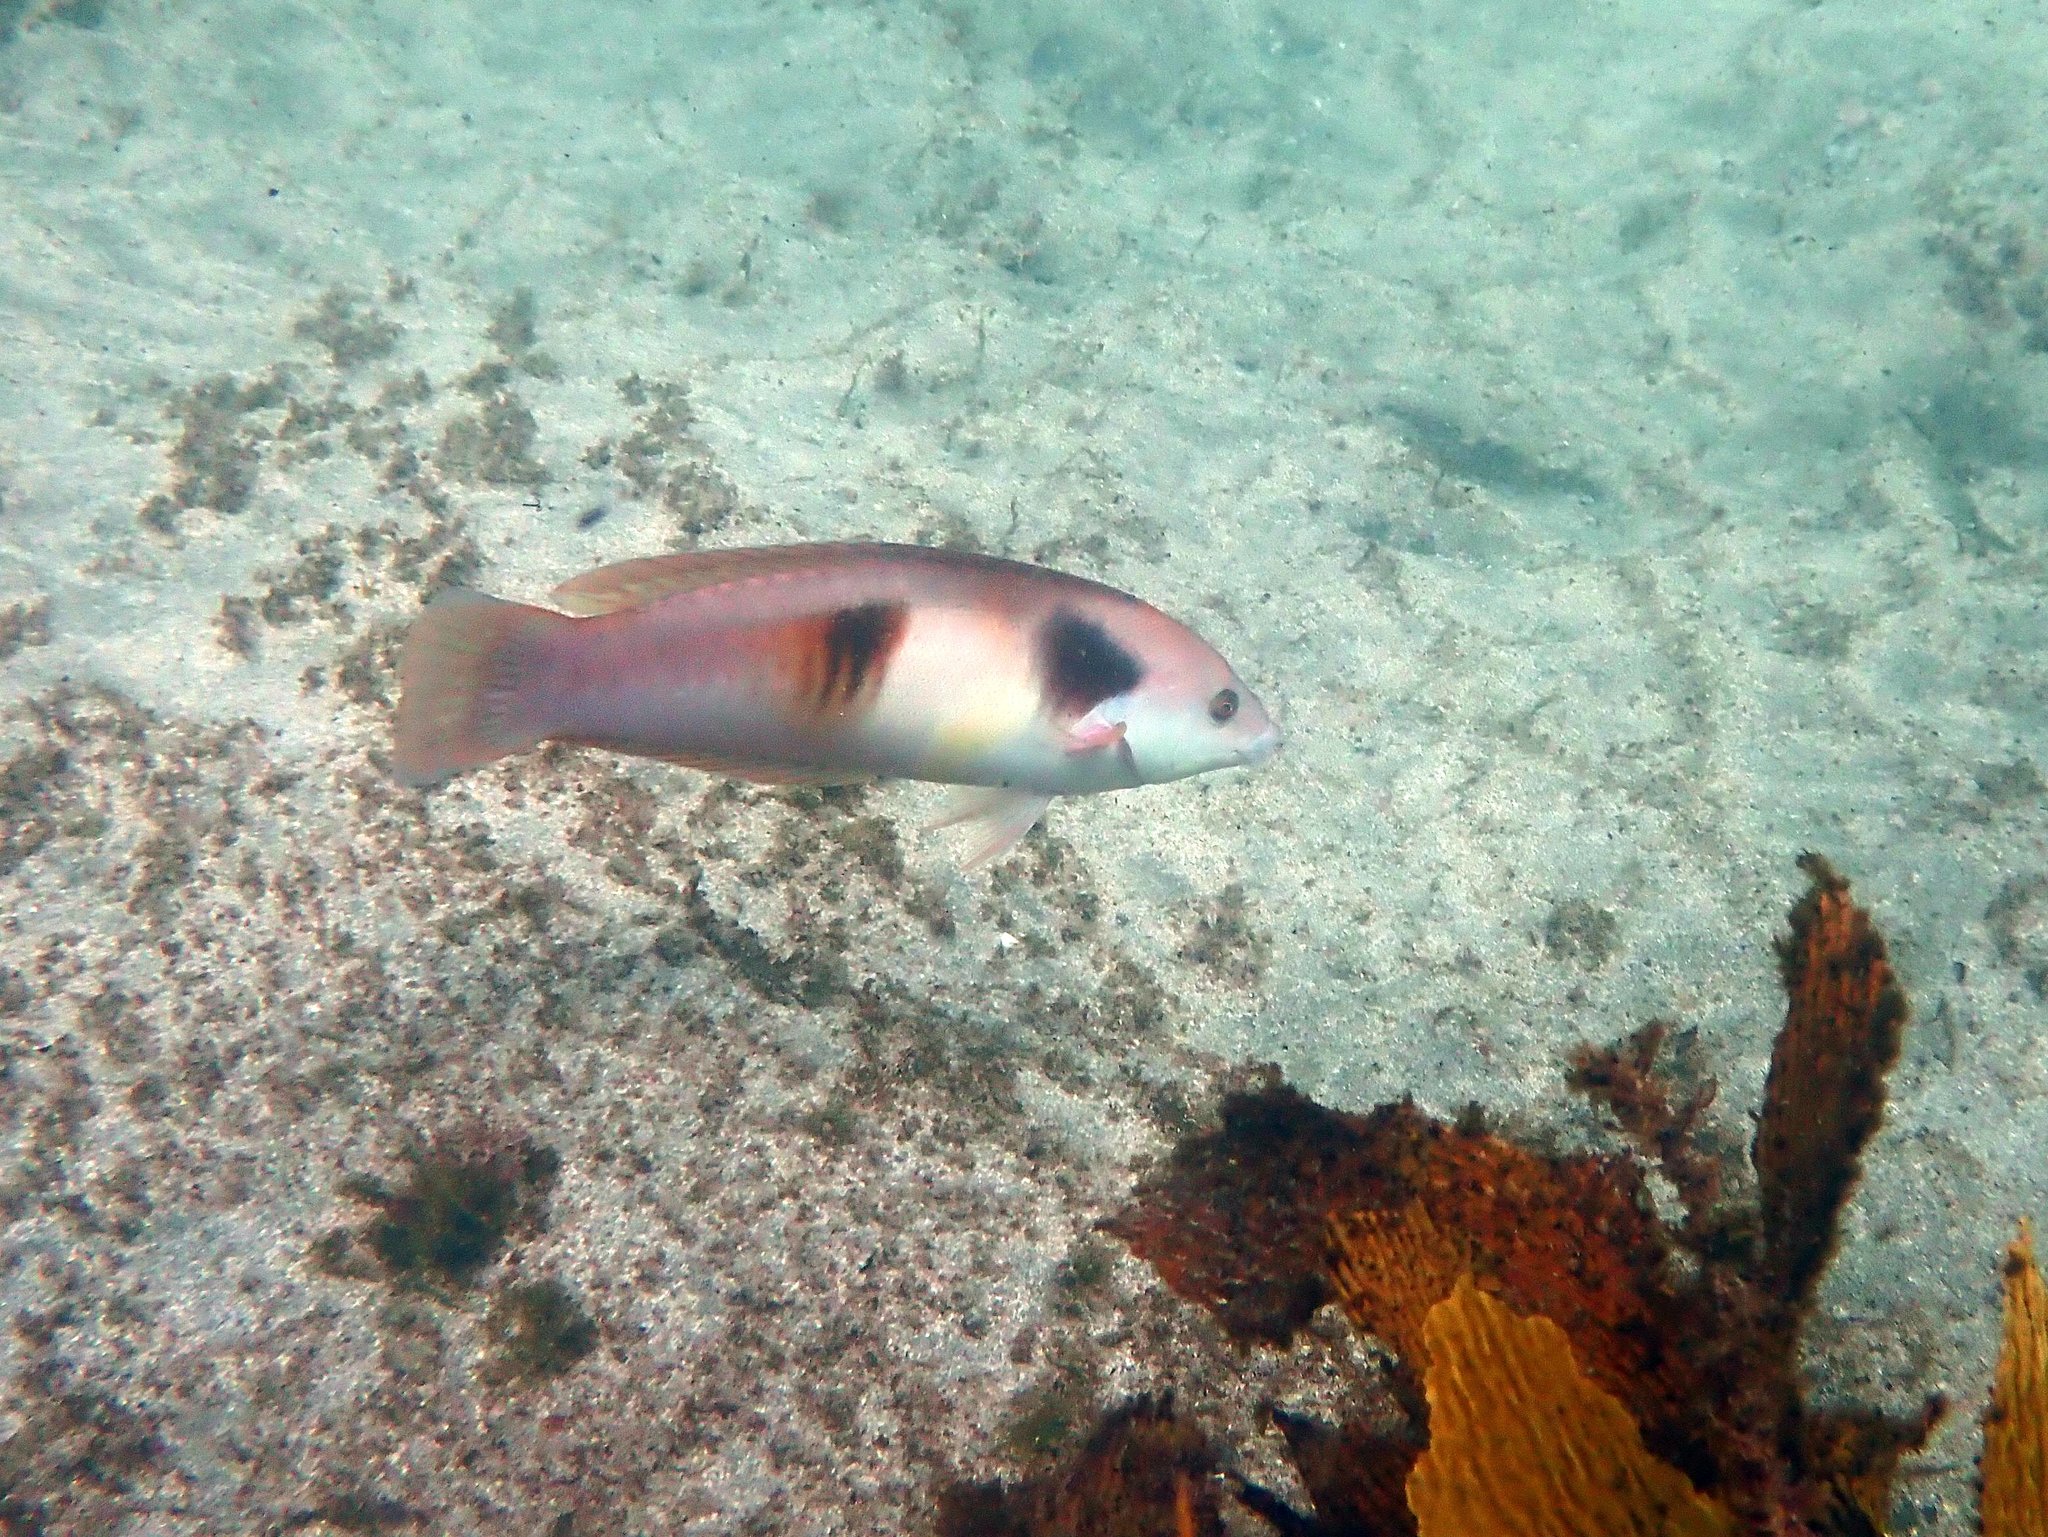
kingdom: Animalia
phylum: Chordata
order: Perciformes
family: Labridae
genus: Coris
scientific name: Coris sandeyeri
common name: Sandager's wrasse
